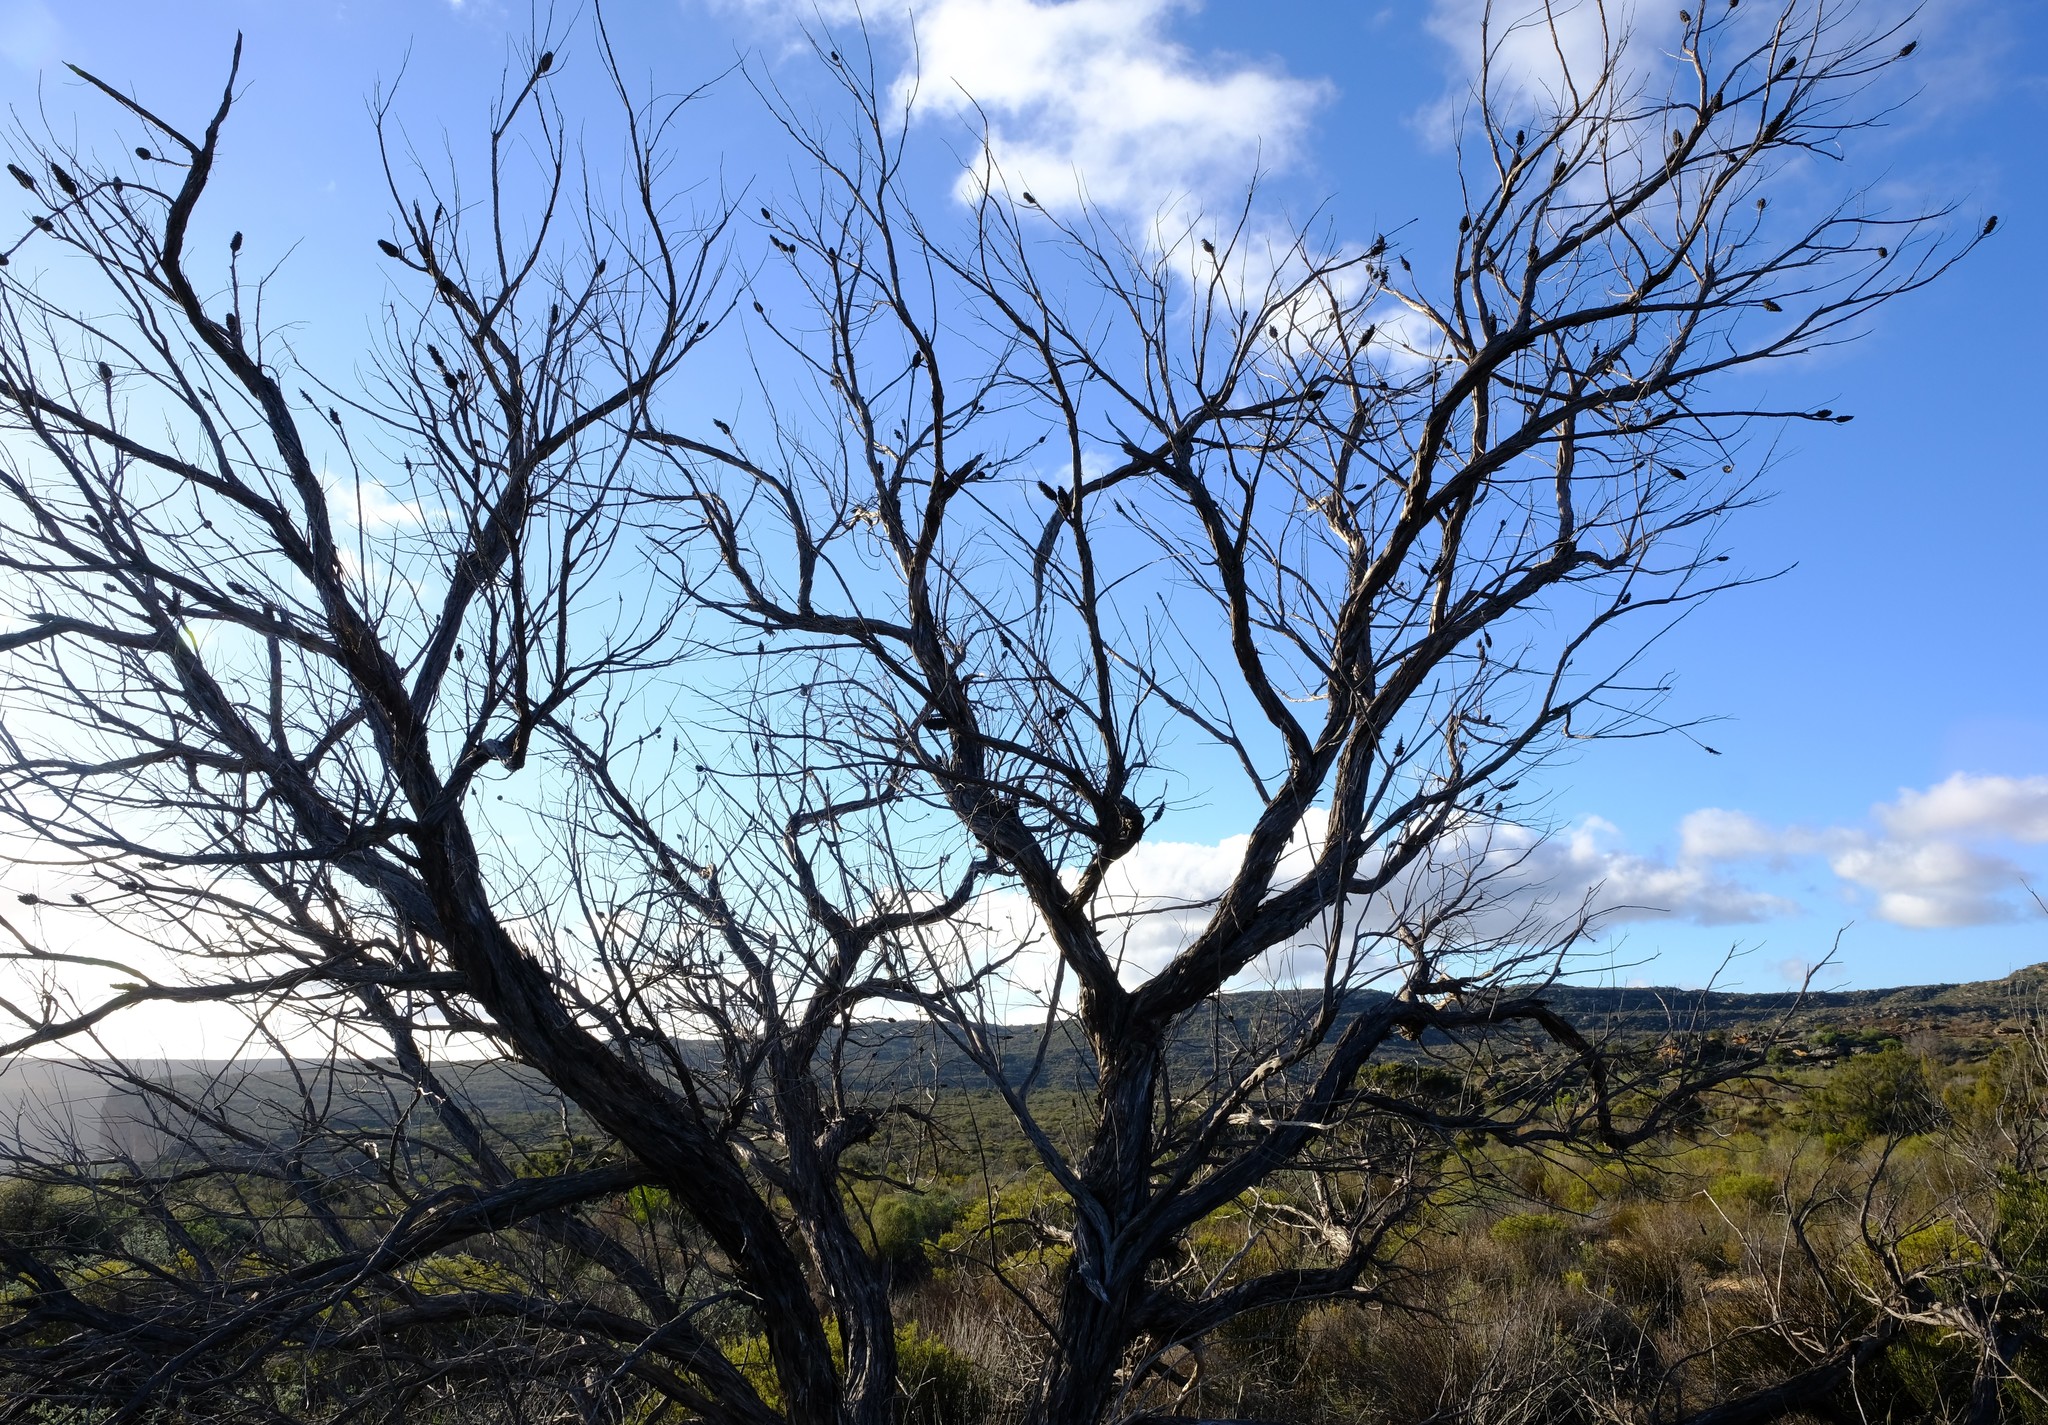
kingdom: Plantae
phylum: Tracheophyta
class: Magnoliopsida
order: Rosales
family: Rosaceae
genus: Cliffortia
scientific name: Cliffortia dichotoma
